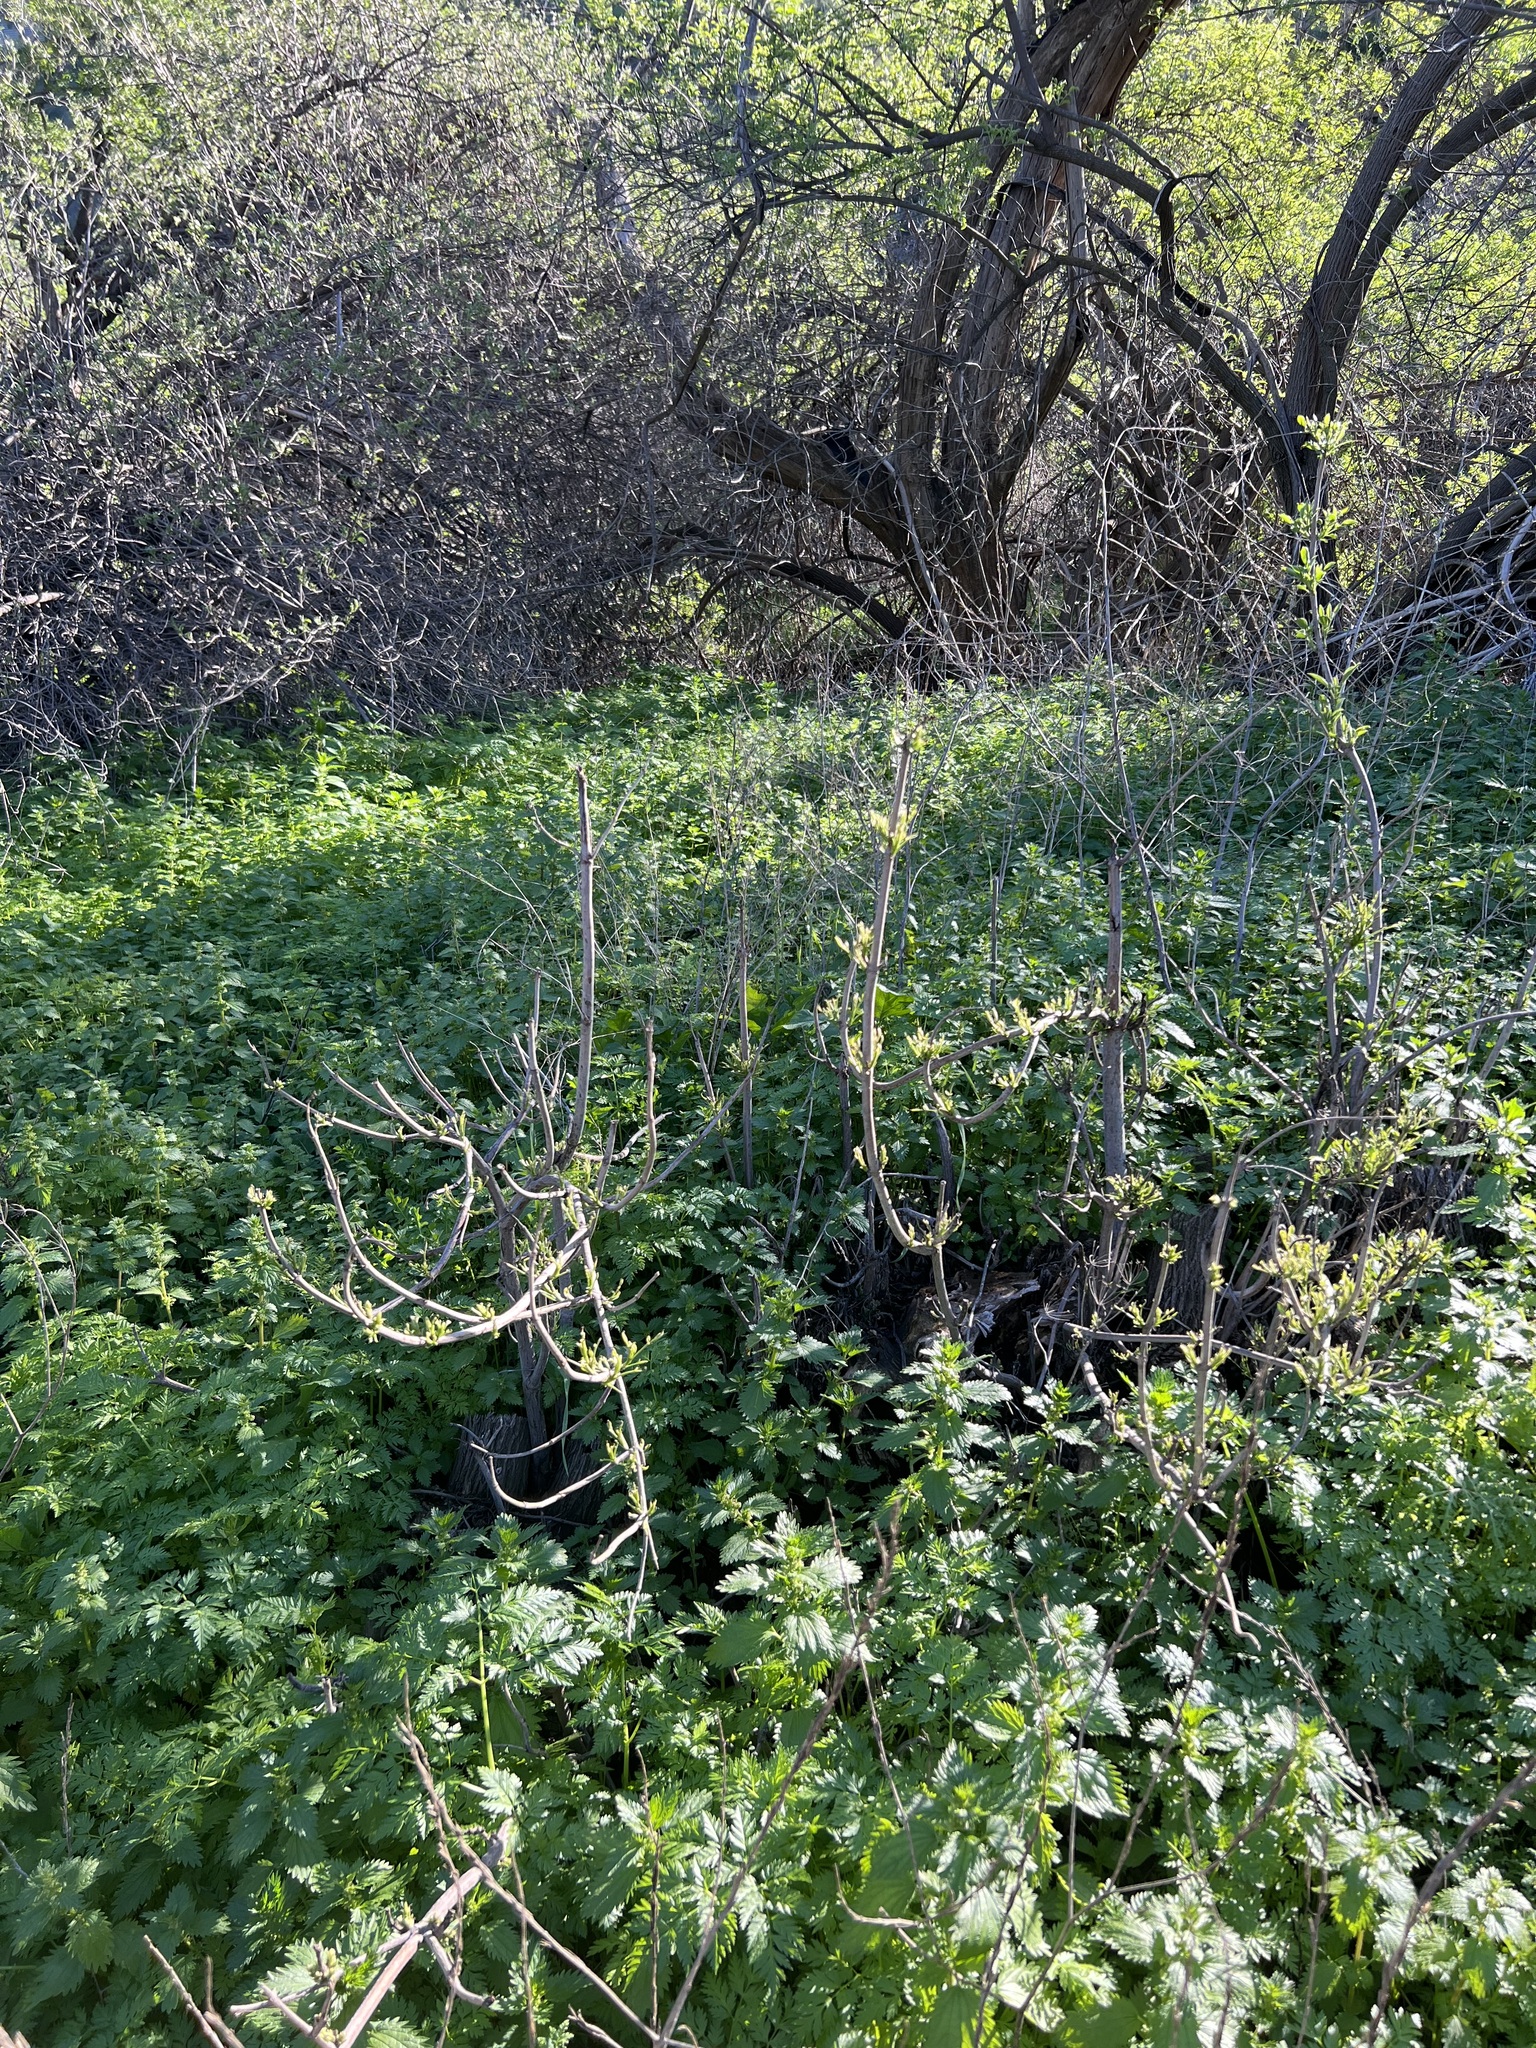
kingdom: Plantae
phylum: Tracheophyta
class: Magnoliopsida
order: Dipsacales
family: Viburnaceae
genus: Sambucus
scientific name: Sambucus cerulea
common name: Blue elder
